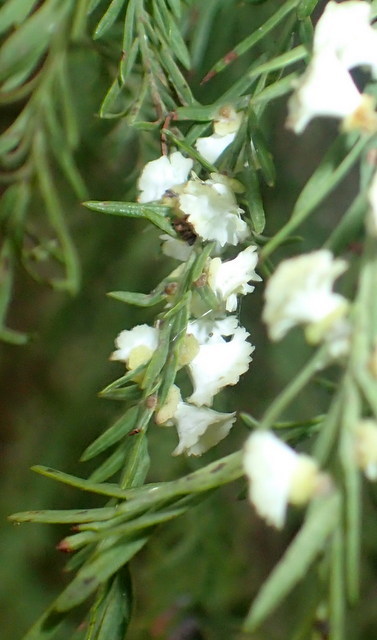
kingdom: Animalia
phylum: Arthropoda
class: Insecta
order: Diptera
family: Cecidomyiidae
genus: Taxodiomyia
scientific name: Taxodiomyia cupressi
